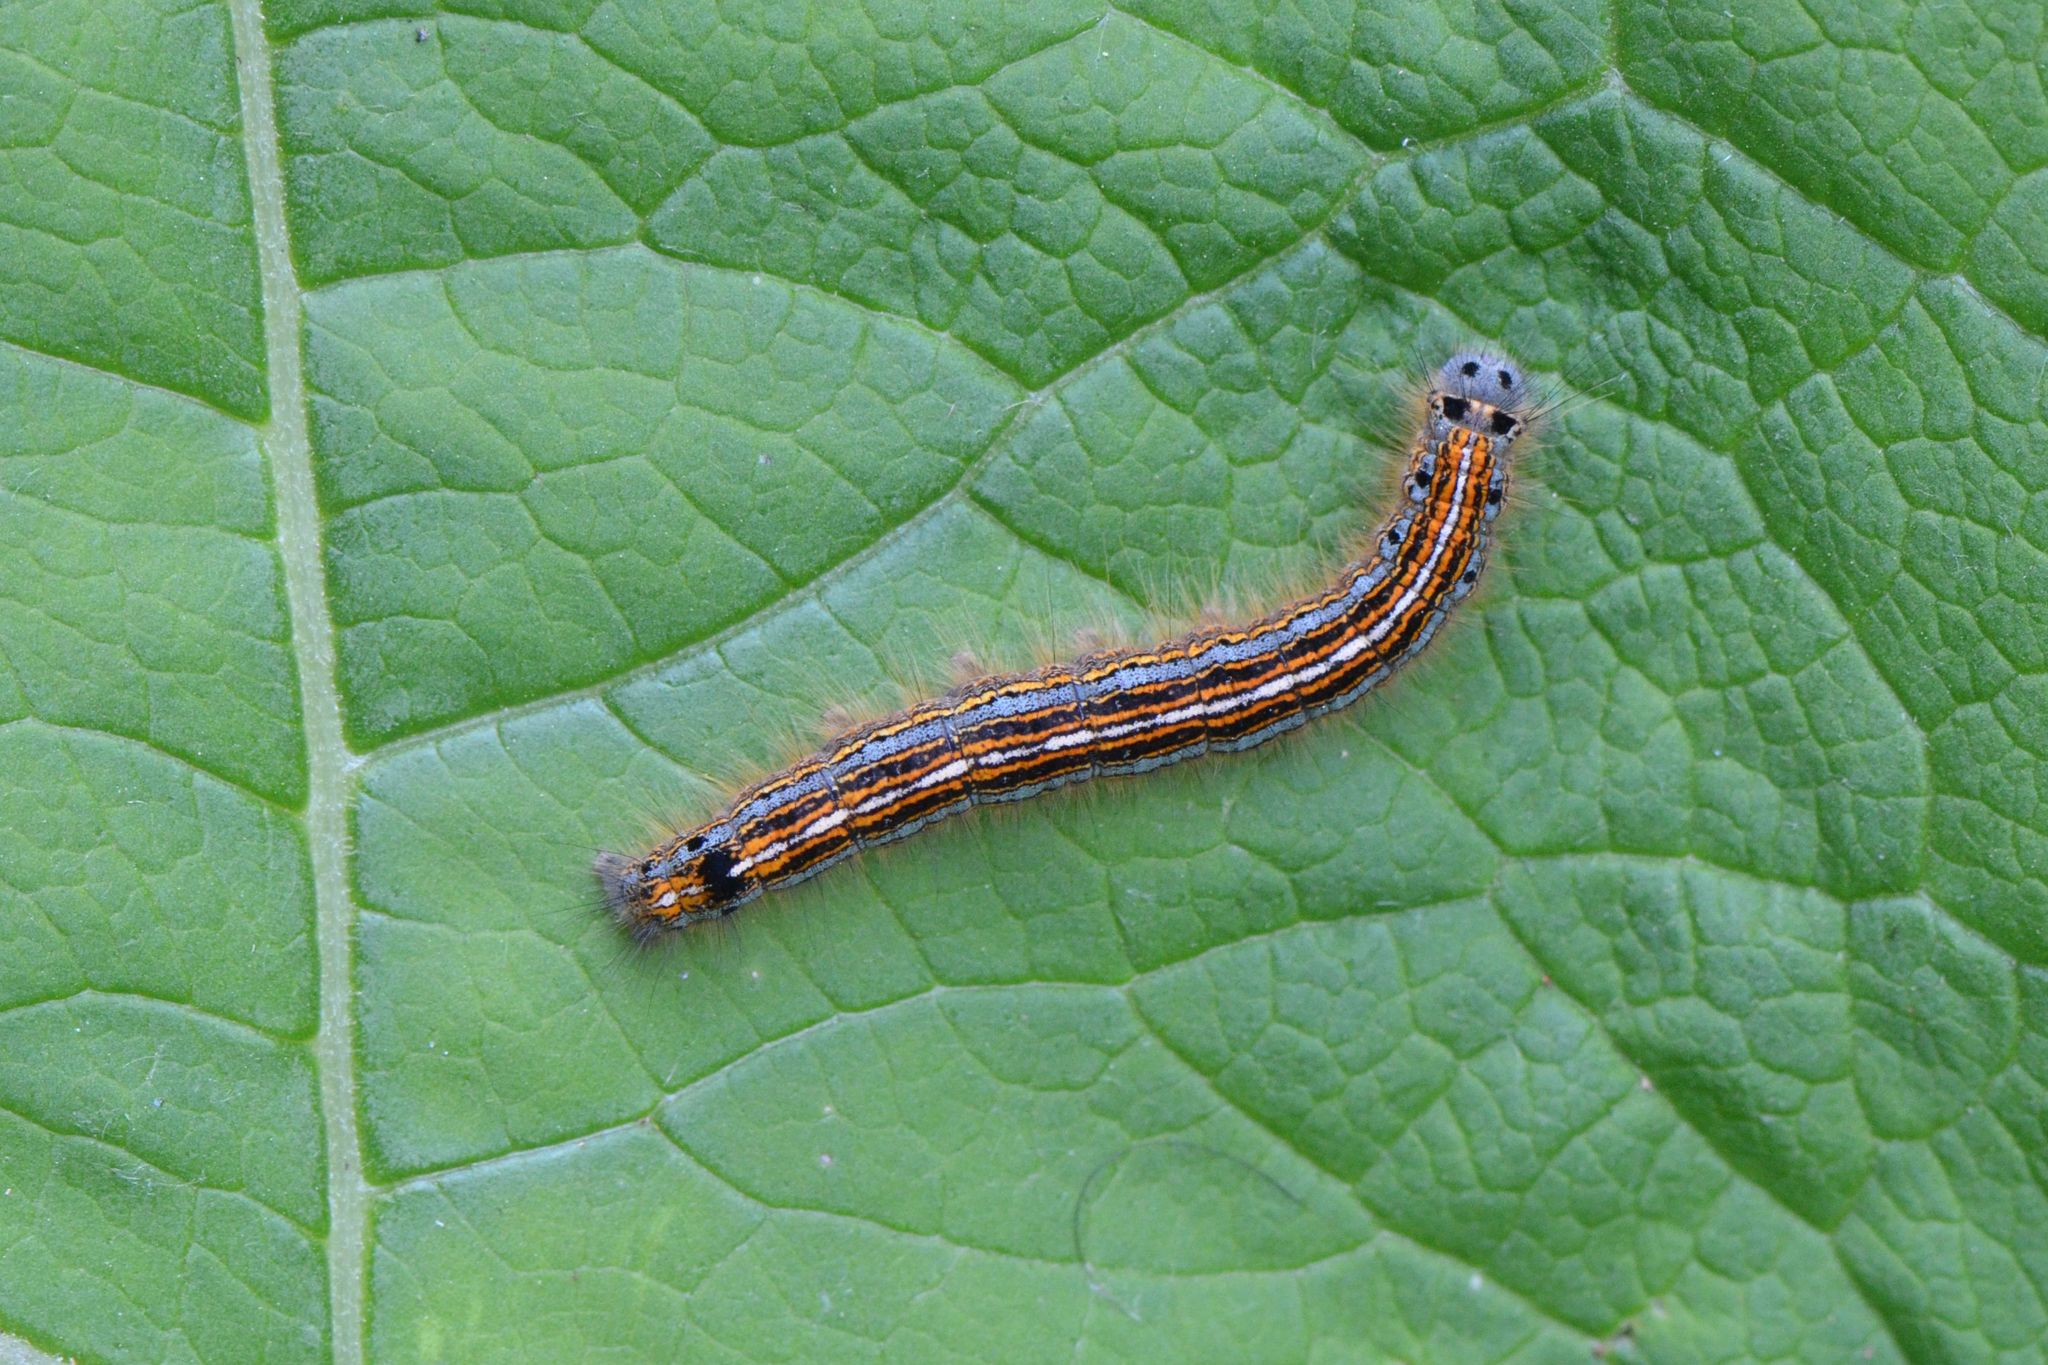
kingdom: Animalia
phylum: Arthropoda
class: Insecta
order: Lepidoptera
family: Lasiocampidae
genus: Malacosoma
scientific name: Malacosoma neustria
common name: The lackey
